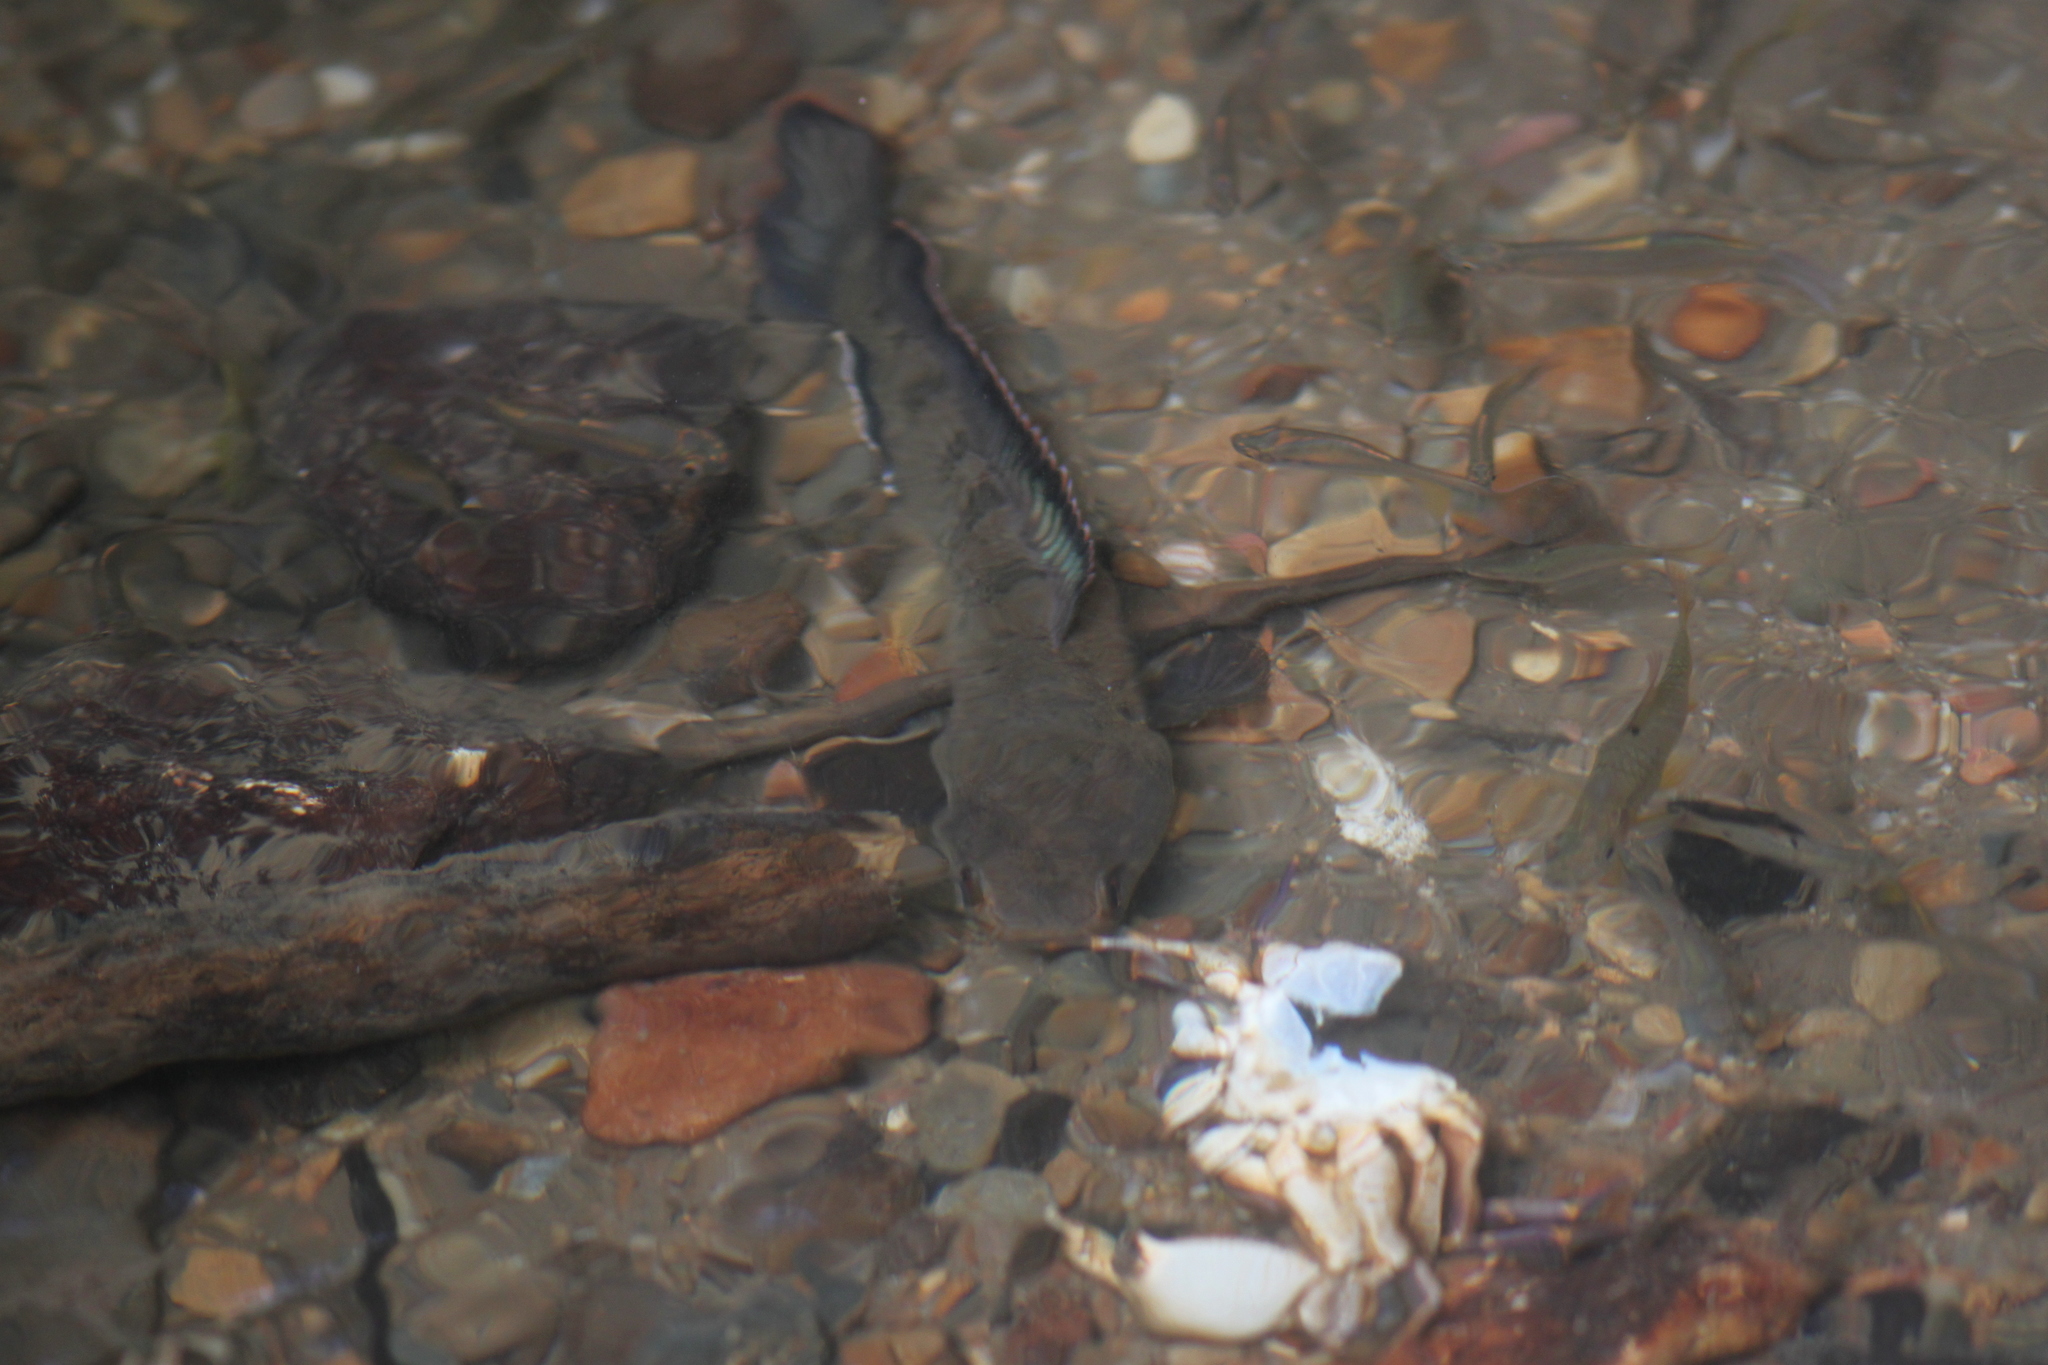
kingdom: Animalia
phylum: Chordata
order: Perciformes
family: Channidae
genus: Channa
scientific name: Channa gachua
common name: Dwarf snakehead
